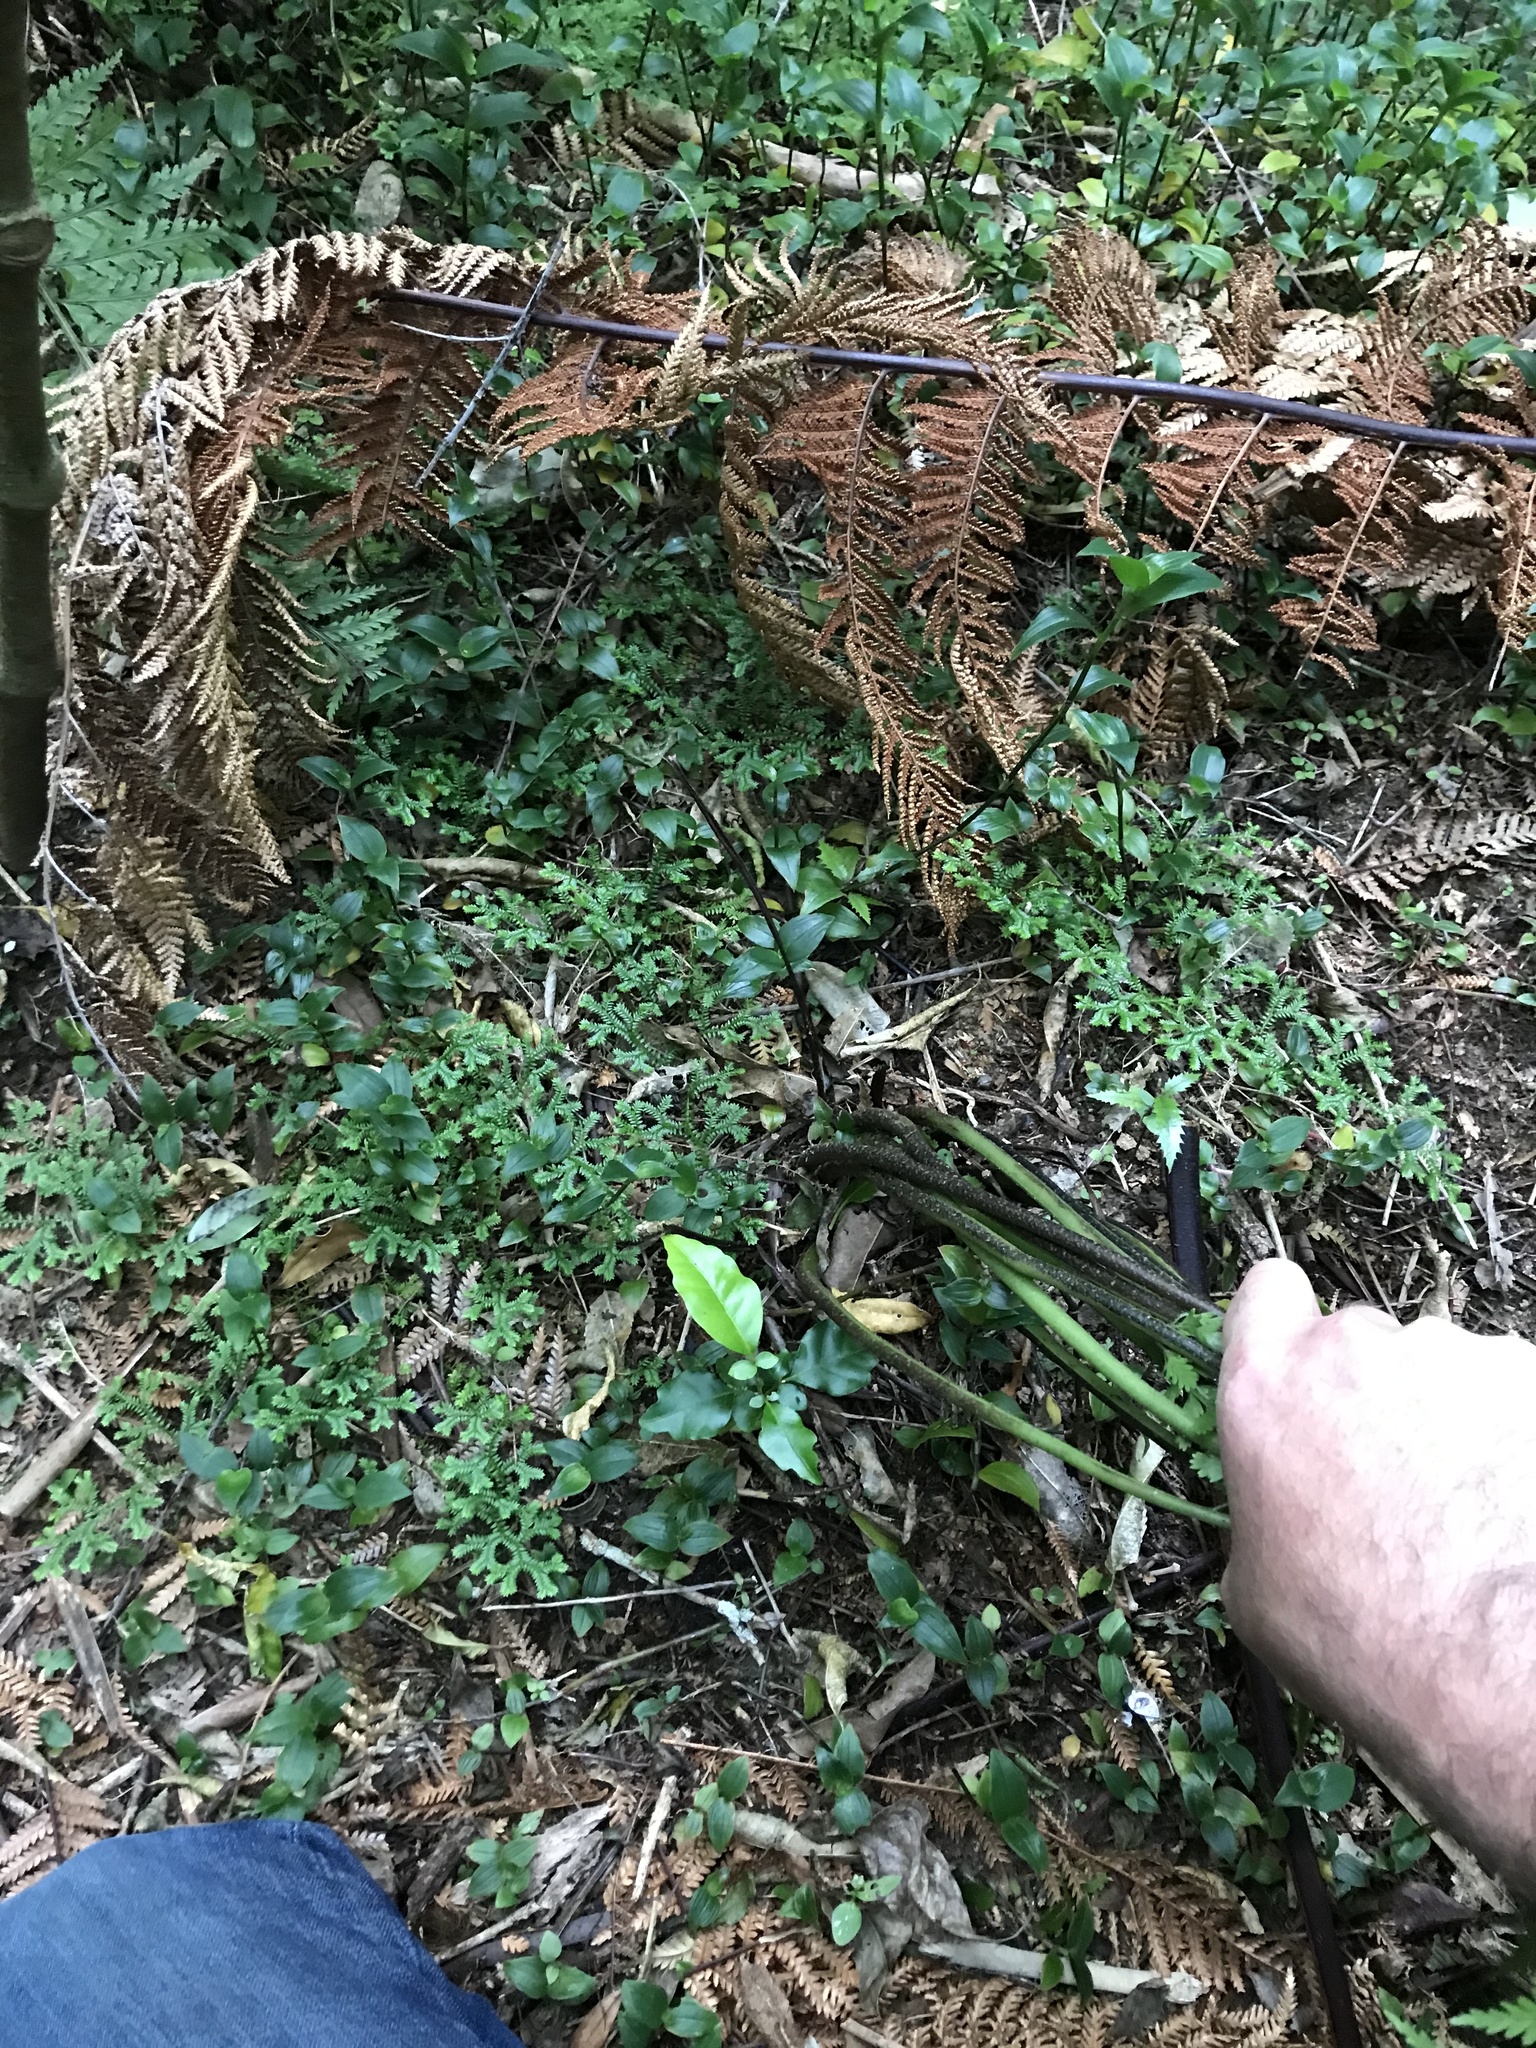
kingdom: Plantae
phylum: Tracheophyta
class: Lycopodiopsida
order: Selaginellales
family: Selaginellaceae
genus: Selaginella
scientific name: Selaginella kraussiana
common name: Krauss' spikemoss
